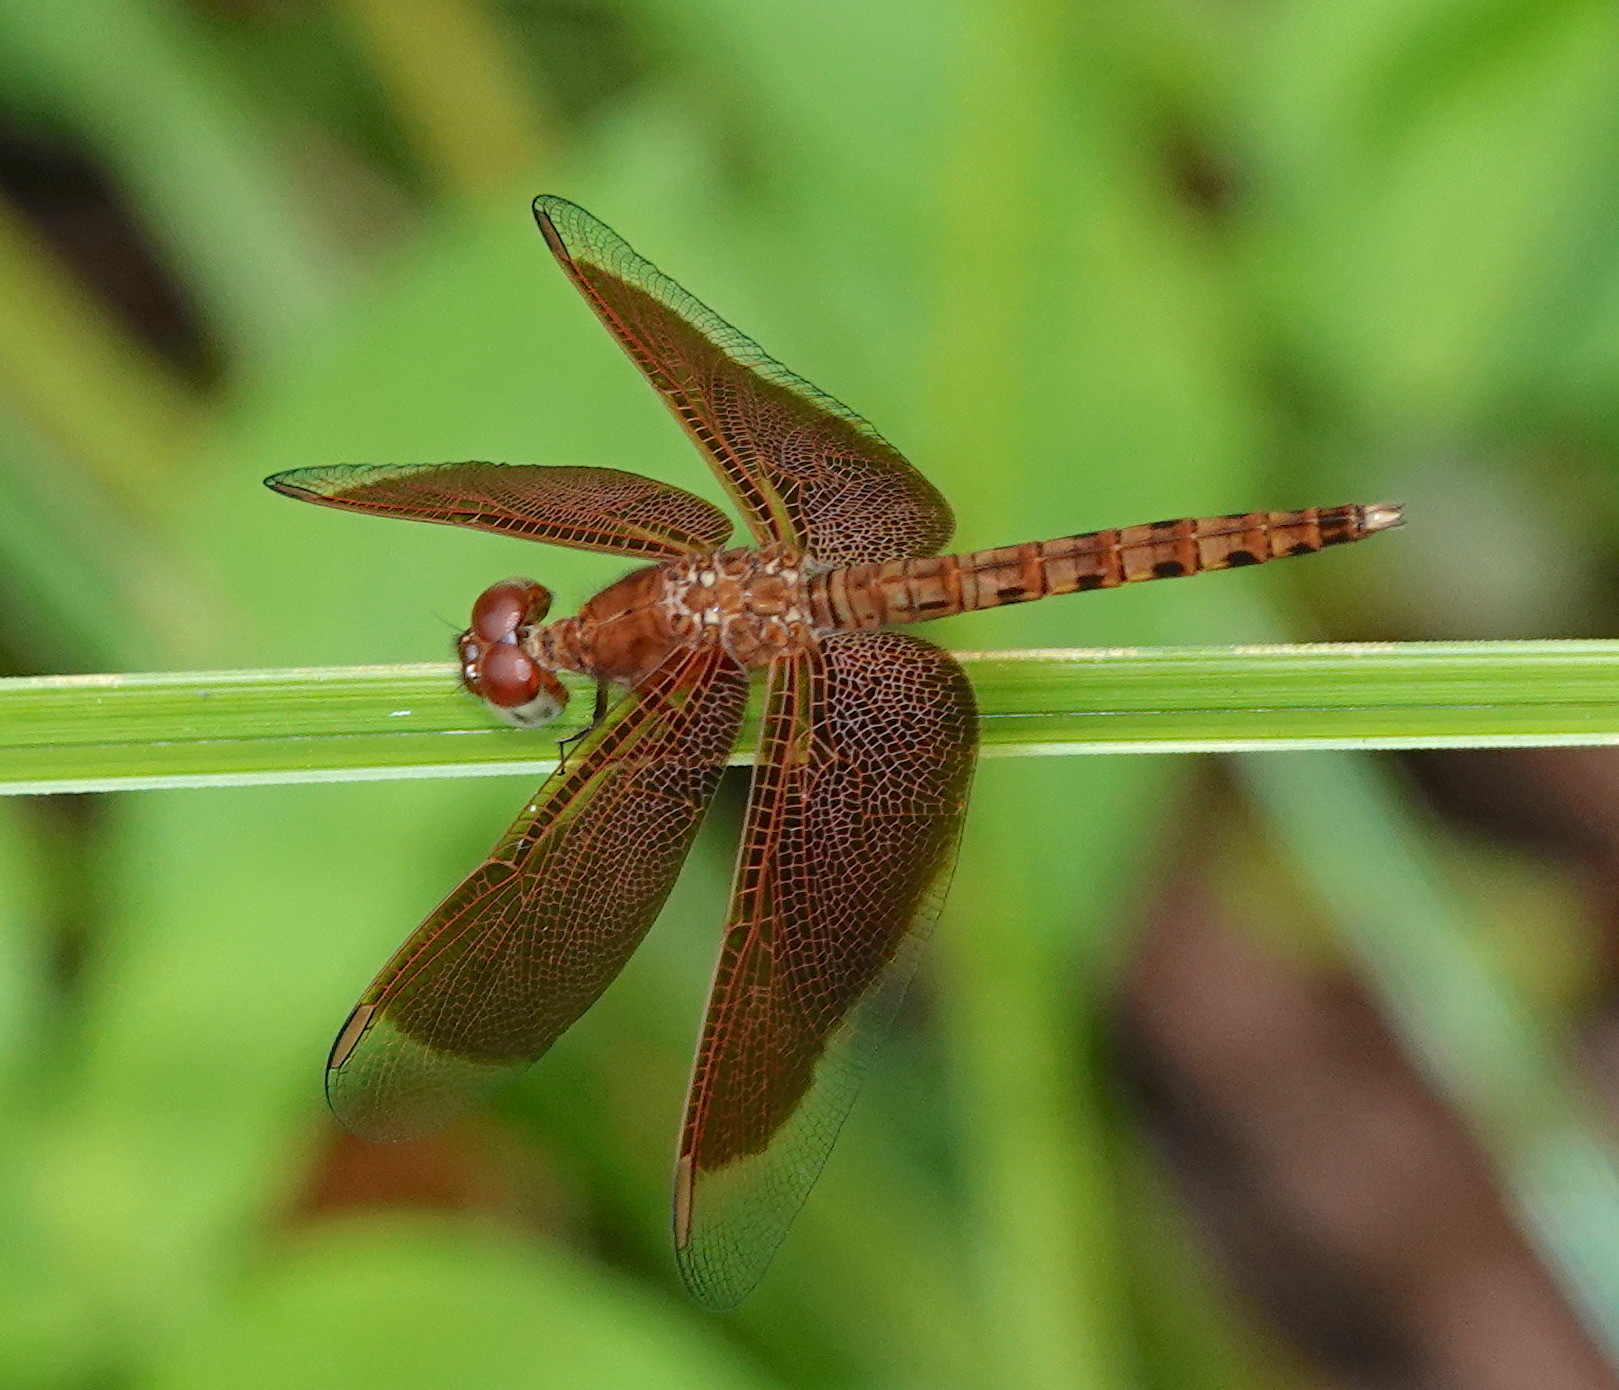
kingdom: Animalia
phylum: Arthropoda
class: Insecta
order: Odonata
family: Libellulidae
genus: Neurothemis
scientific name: Neurothemis fluctuans
